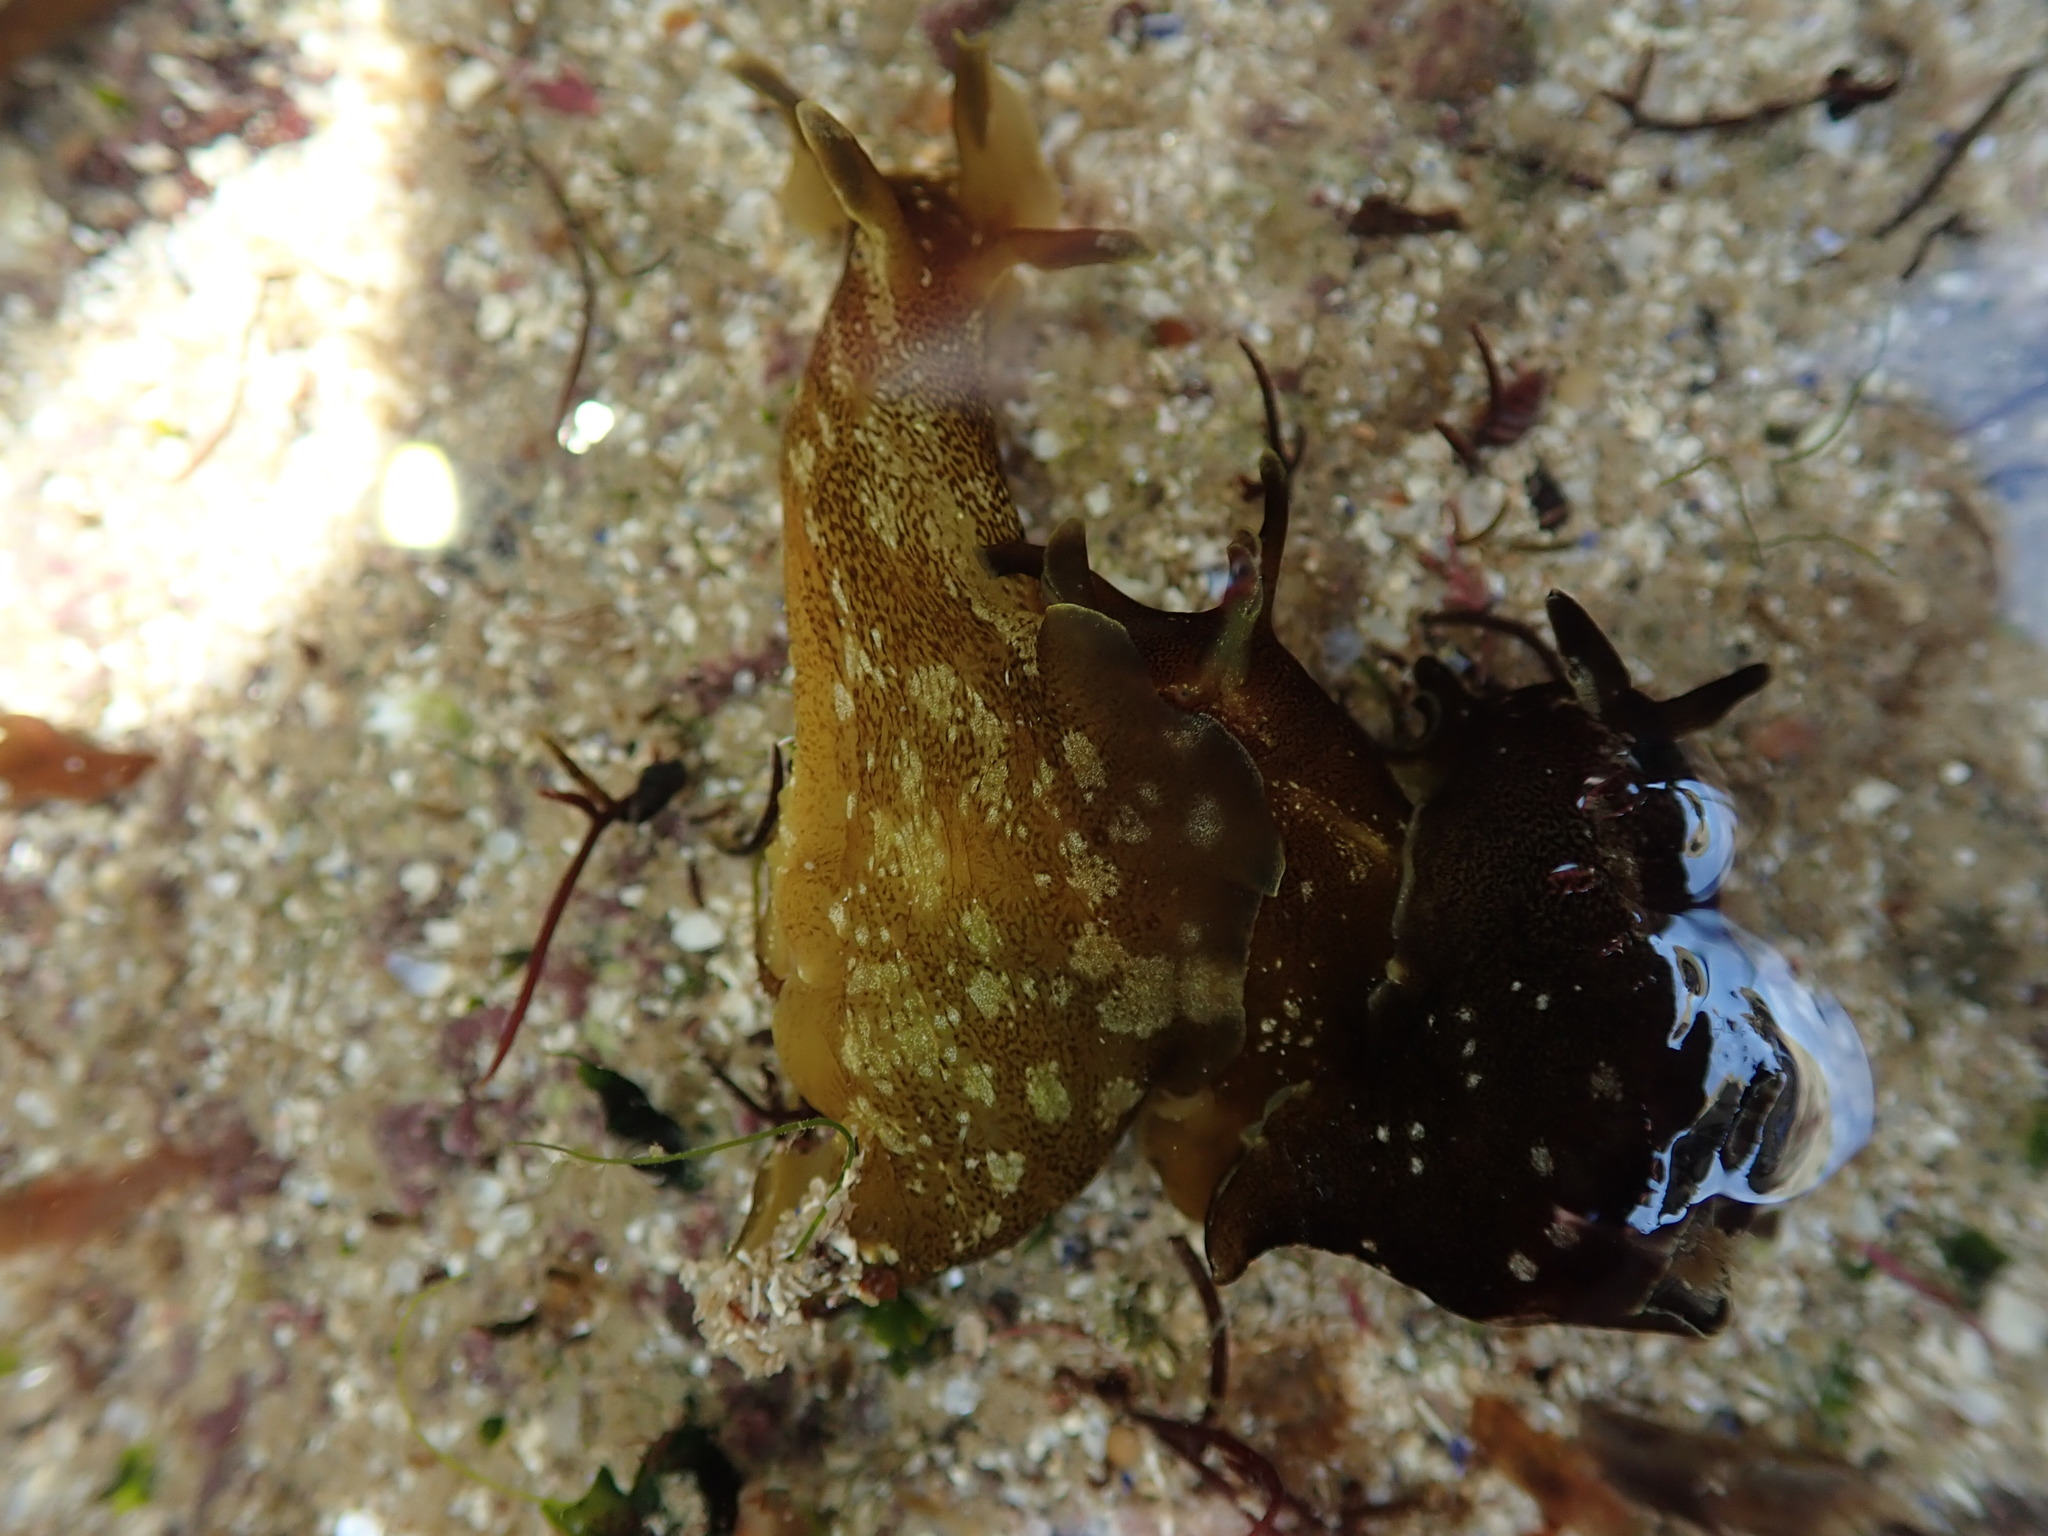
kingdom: Animalia
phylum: Mollusca
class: Gastropoda
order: Aplysiida
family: Aplysiidae
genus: Aplysia
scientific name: Aplysia punctata
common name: Common sea hare
